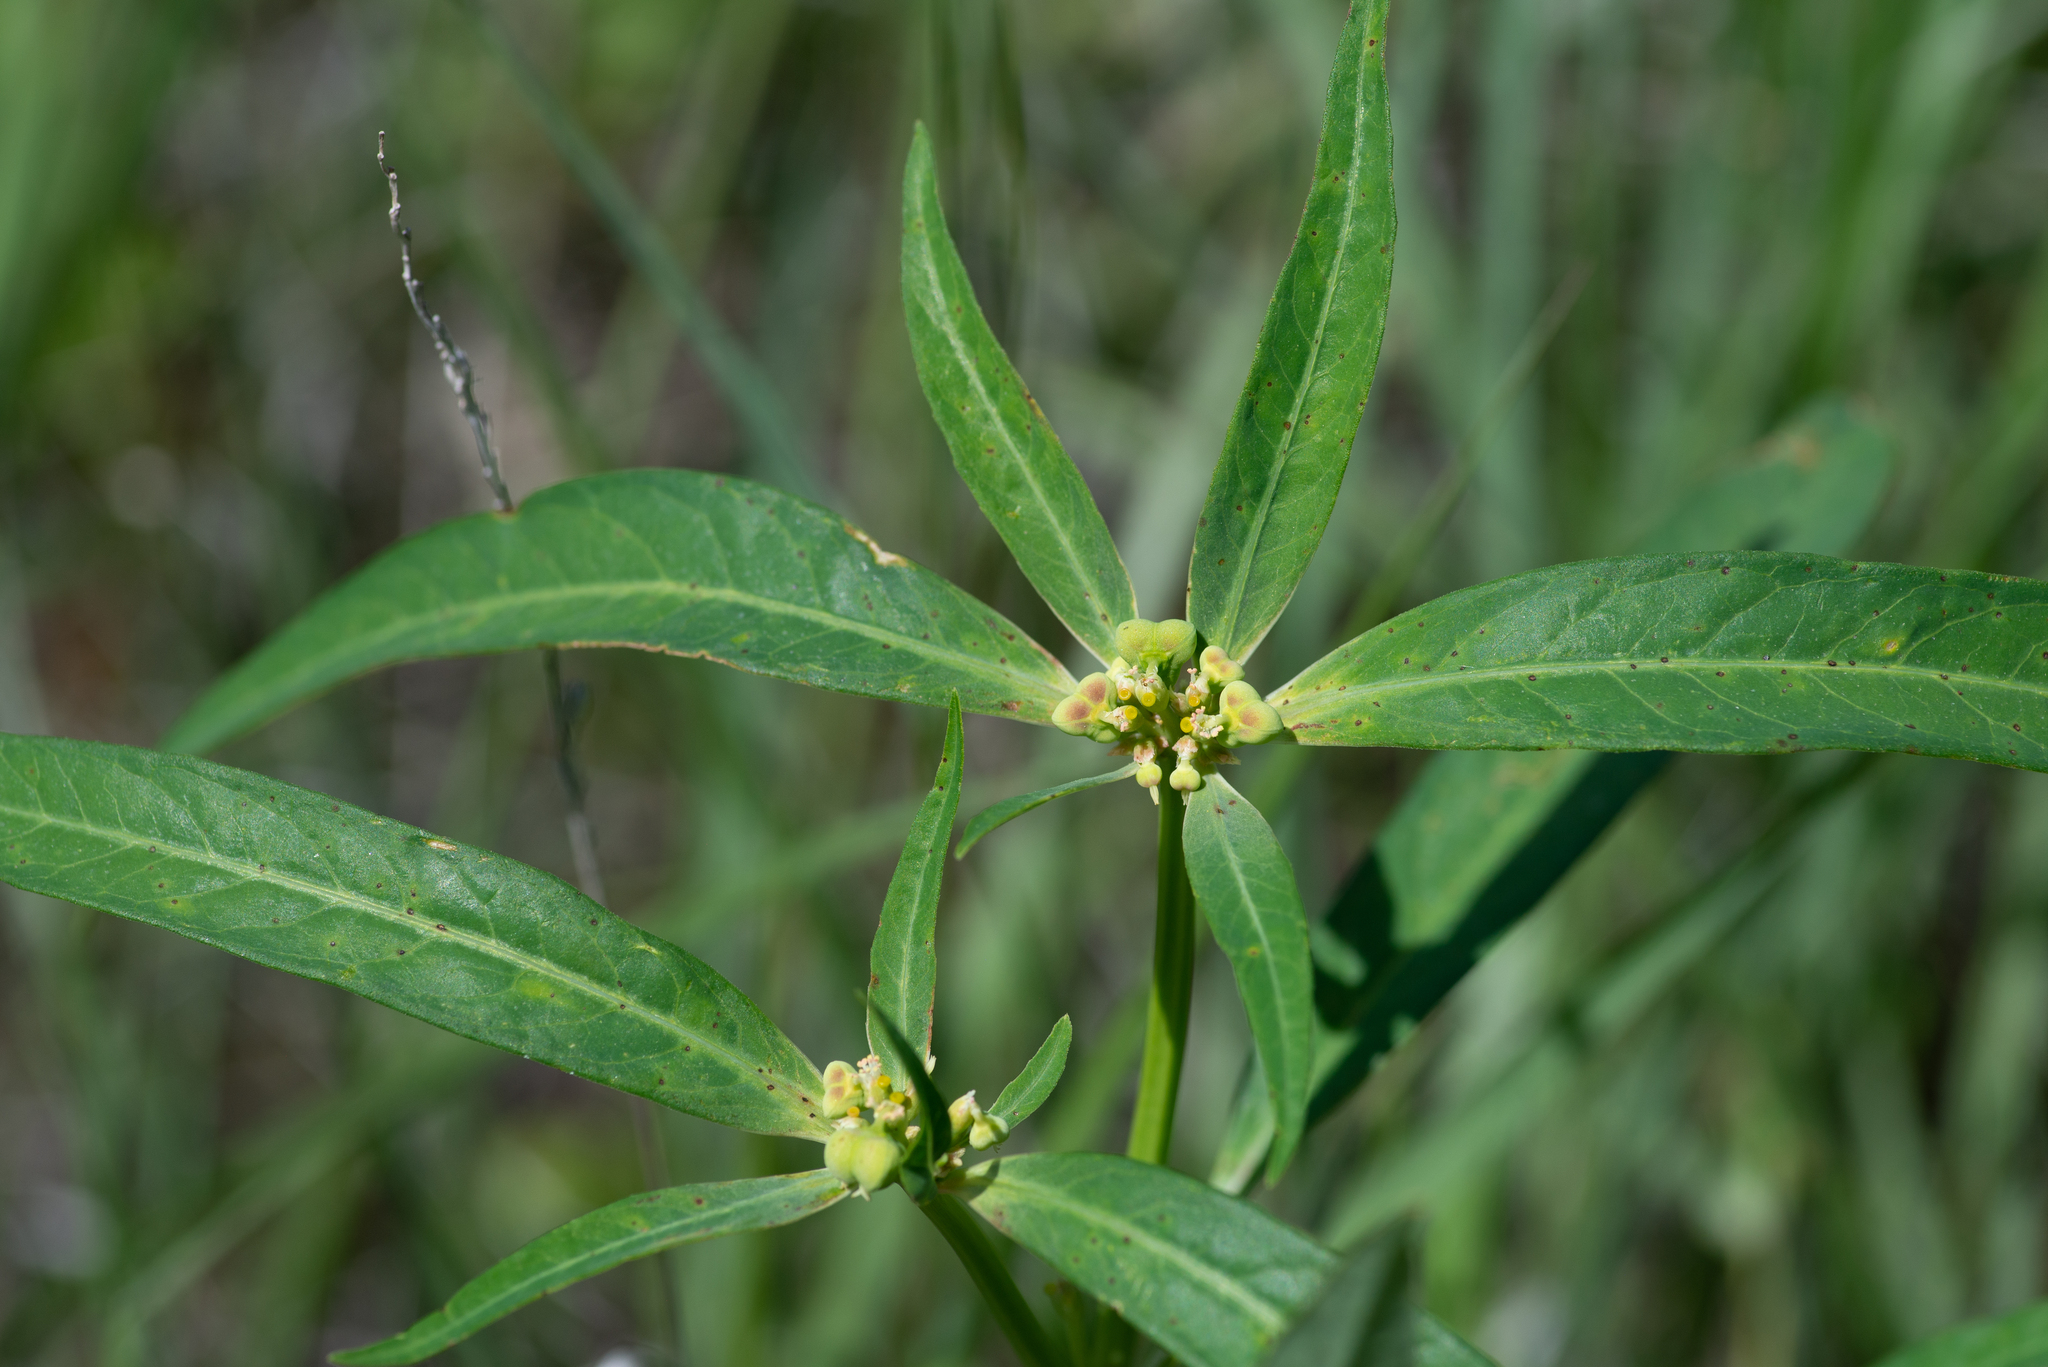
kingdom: Plantae
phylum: Tracheophyta
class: Magnoliopsida
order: Malpighiales
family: Euphorbiaceae
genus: Euphorbia
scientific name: Euphorbia heterophylla
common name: Mexican fireplant
